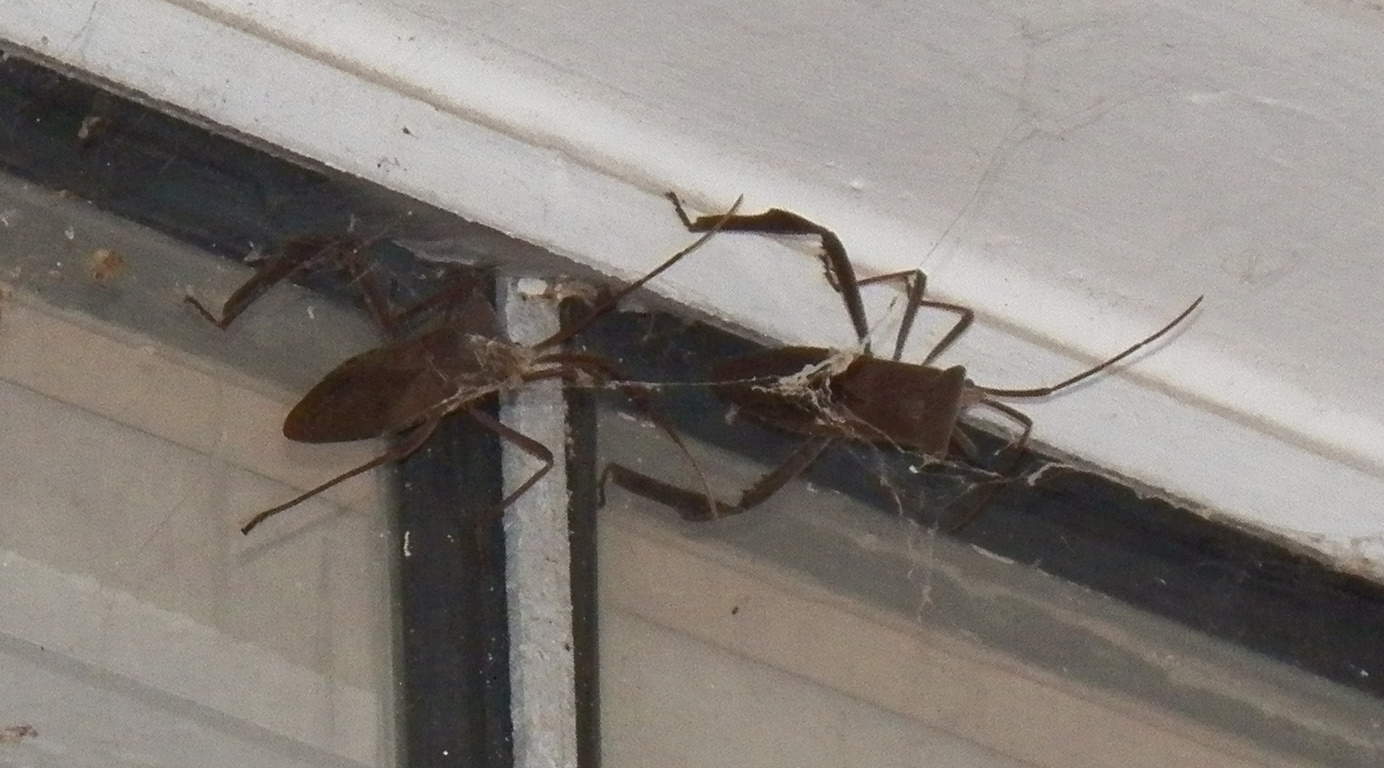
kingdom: Animalia
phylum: Arthropoda
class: Insecta
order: Hemiptera
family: Coreidae
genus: Acanthocephala
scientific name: Acanthocephala declivis
